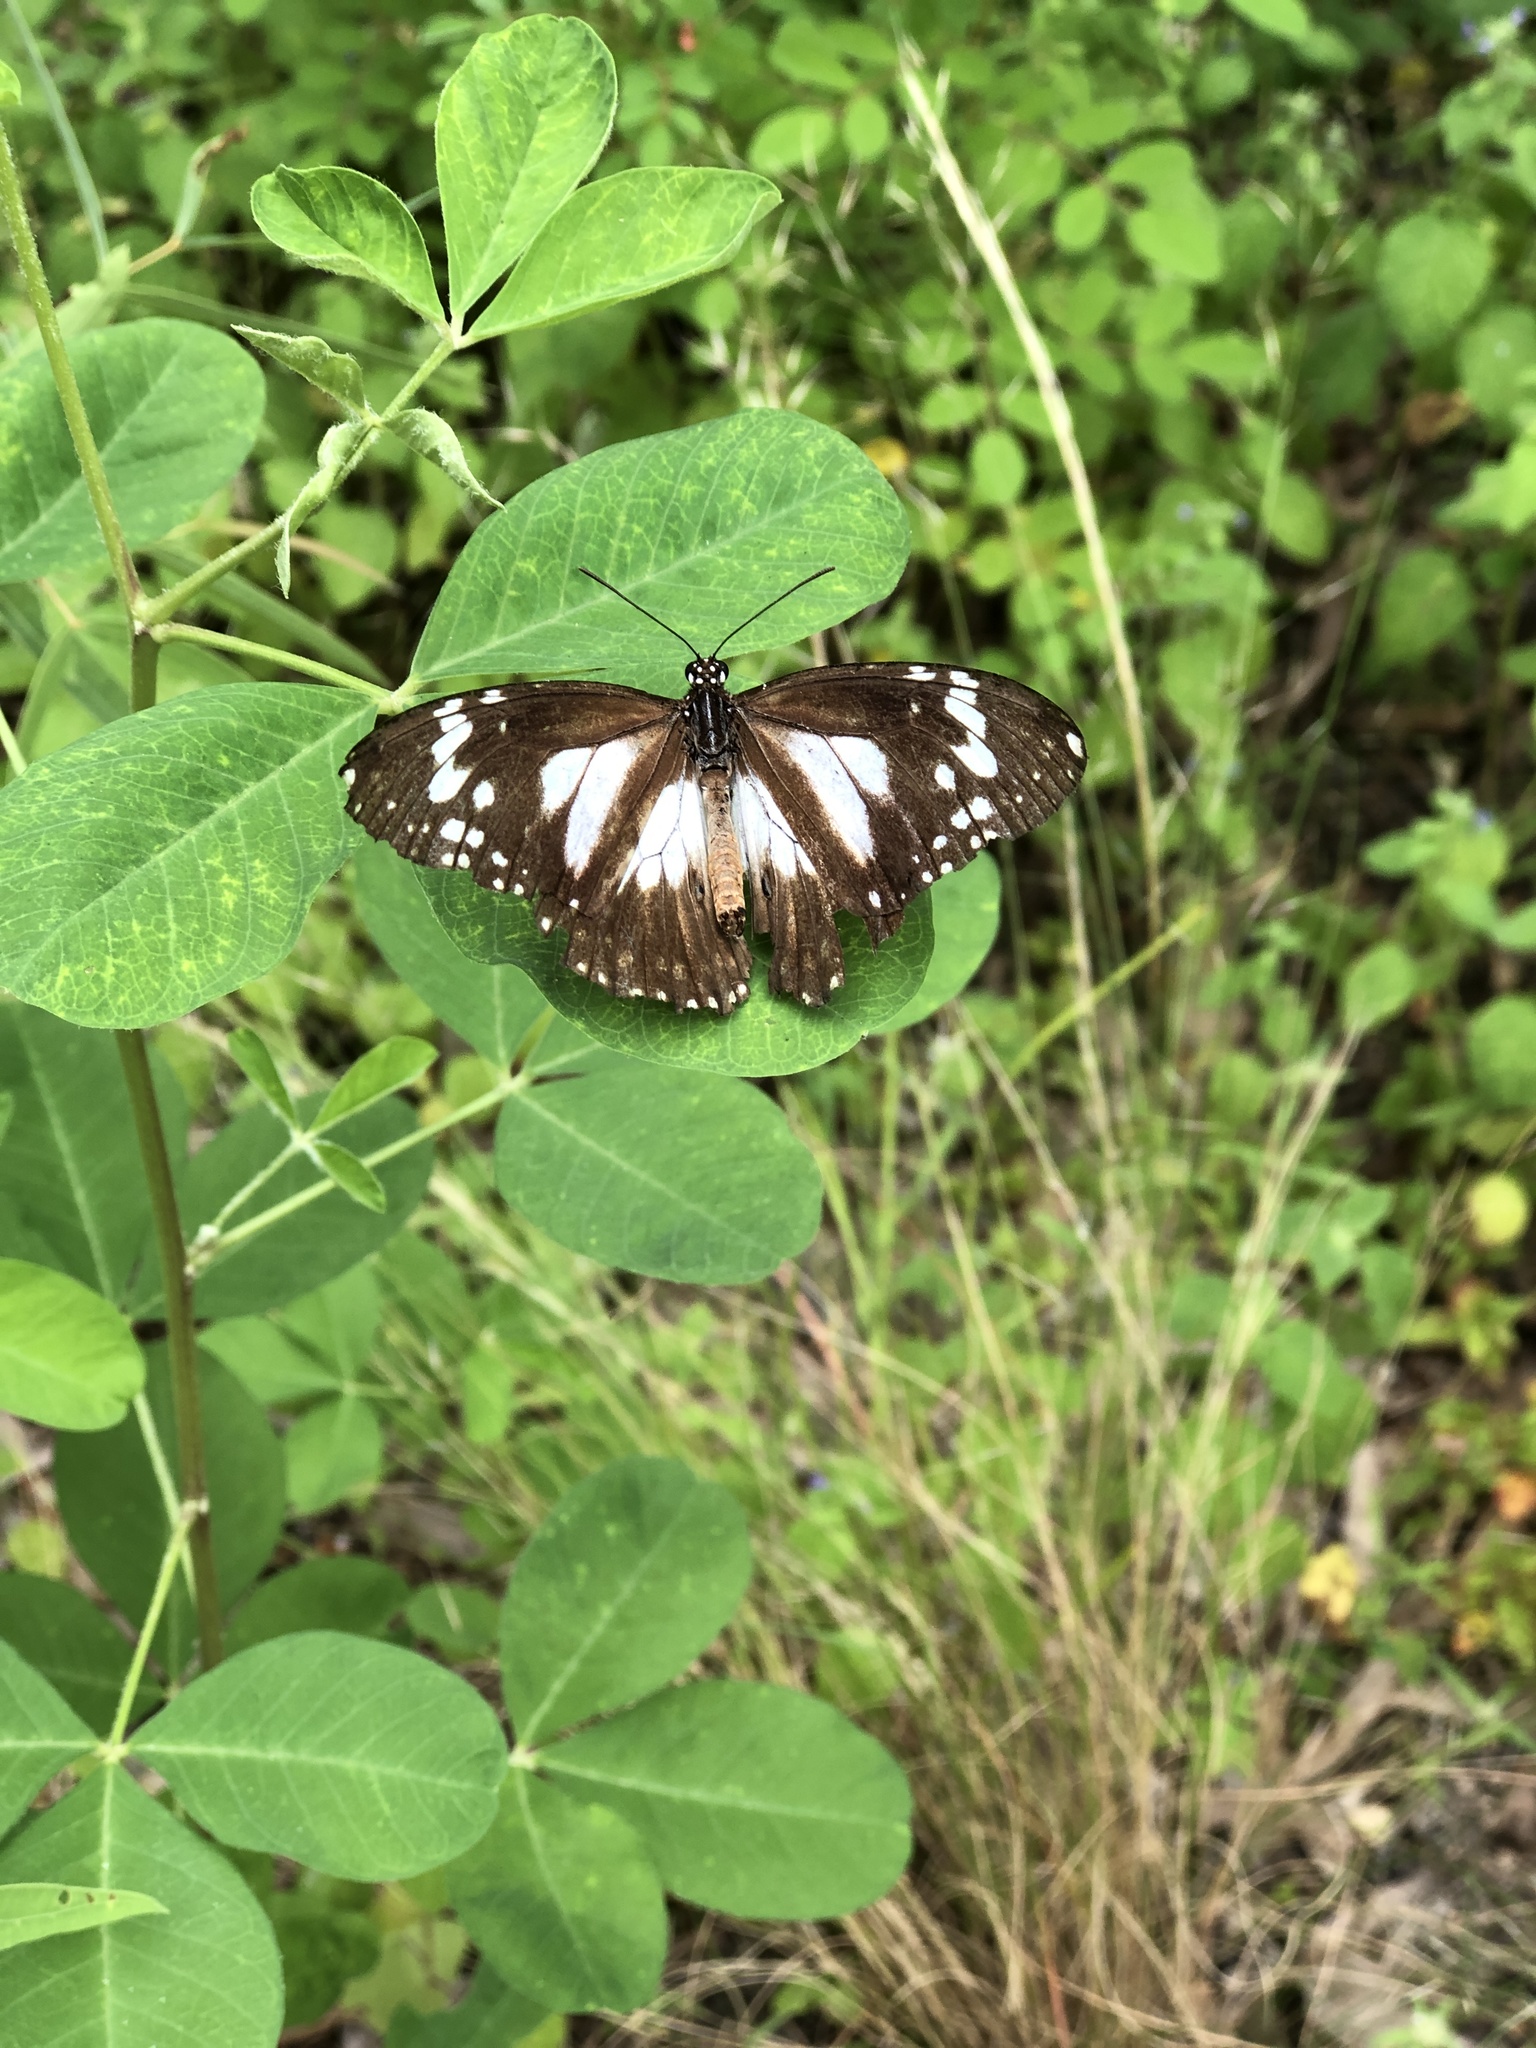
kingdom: Animalia
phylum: Arthropoda
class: Insecta
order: Lepidoptera
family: Nymphalidae
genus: Danaus
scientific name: Danaus affinis
